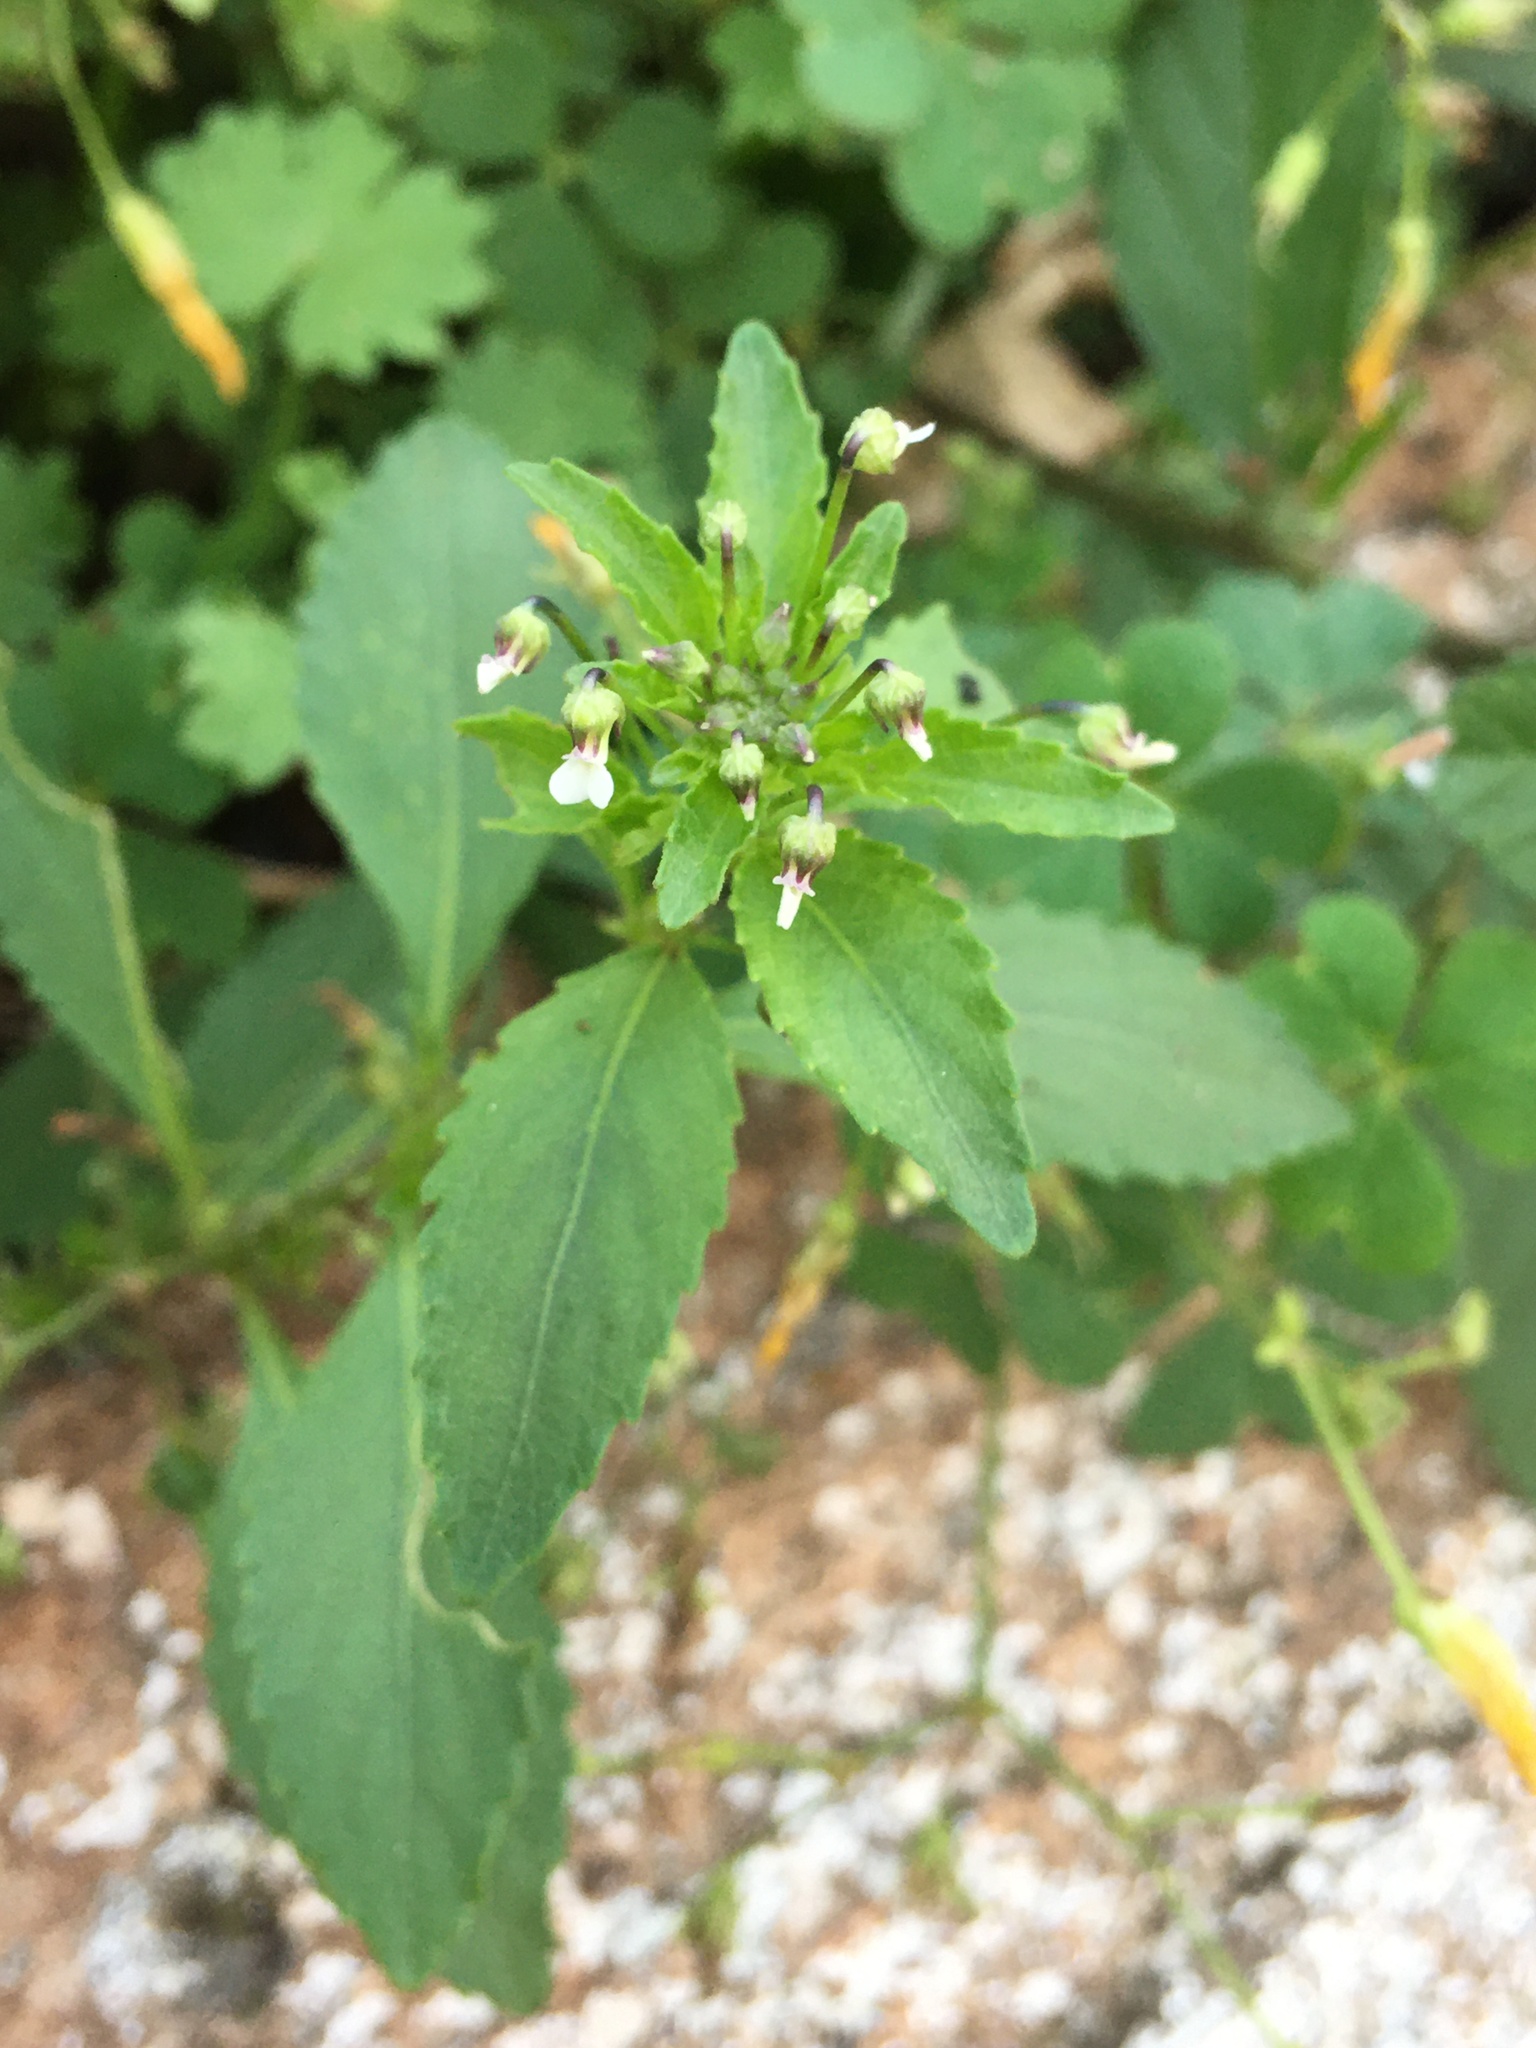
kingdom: Plantae
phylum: Tracheophyta
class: Magnoliopsida
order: Malpighiales
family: Violaceae
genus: Pombalia
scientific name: Pombalia parviflora
